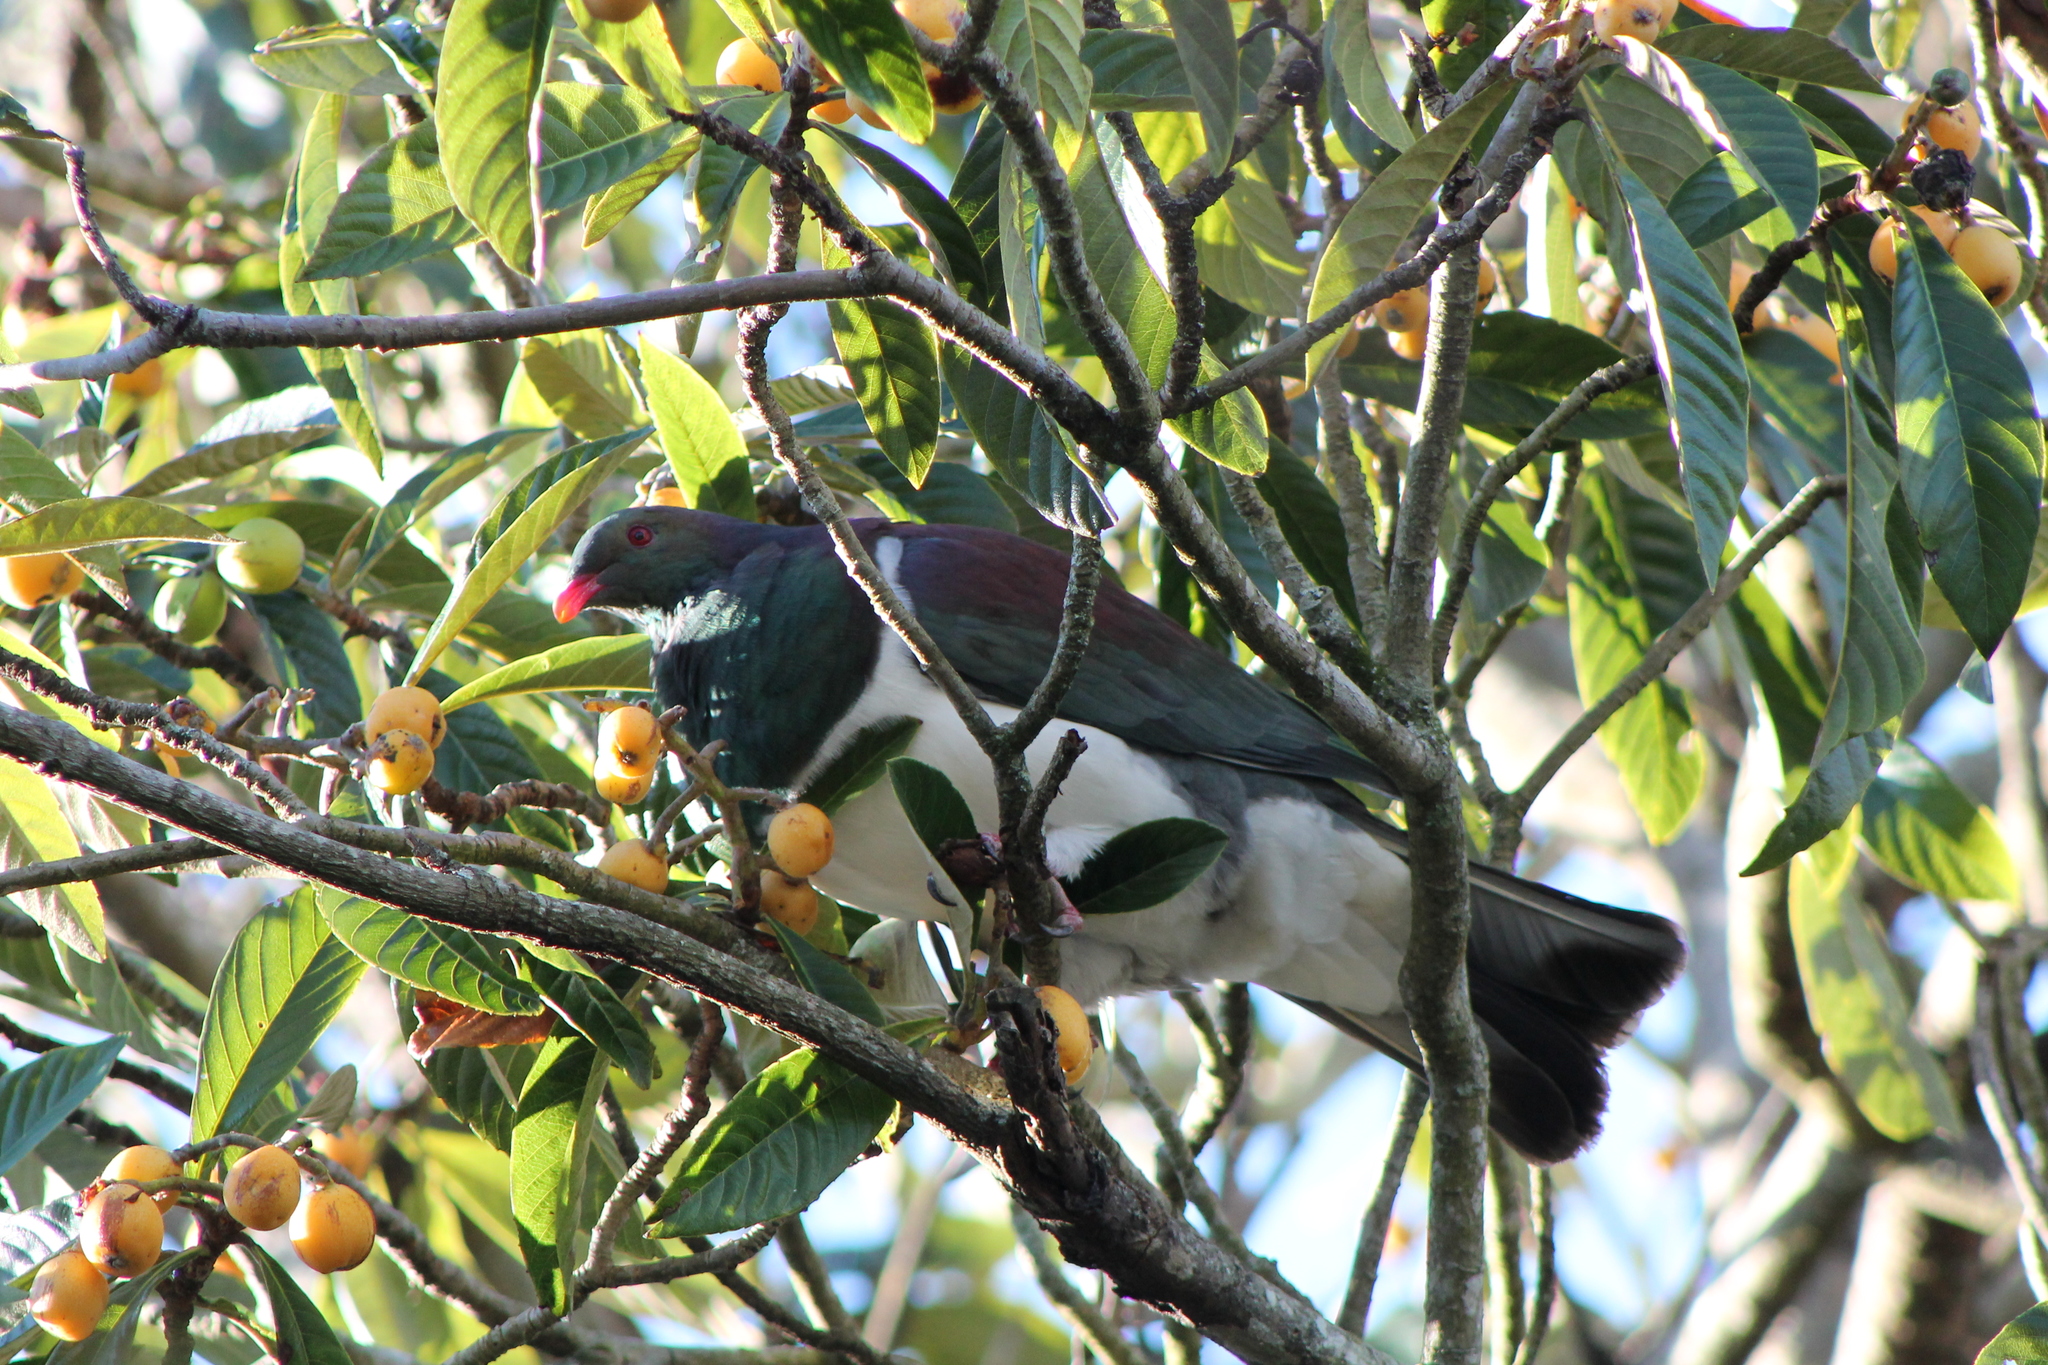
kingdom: Animalia
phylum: Chordata
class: Aves
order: Columbiformes
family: Columbidae
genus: Hemiphaga
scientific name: Hemiphaga novaeseelandiae
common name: New zealand pigeon
